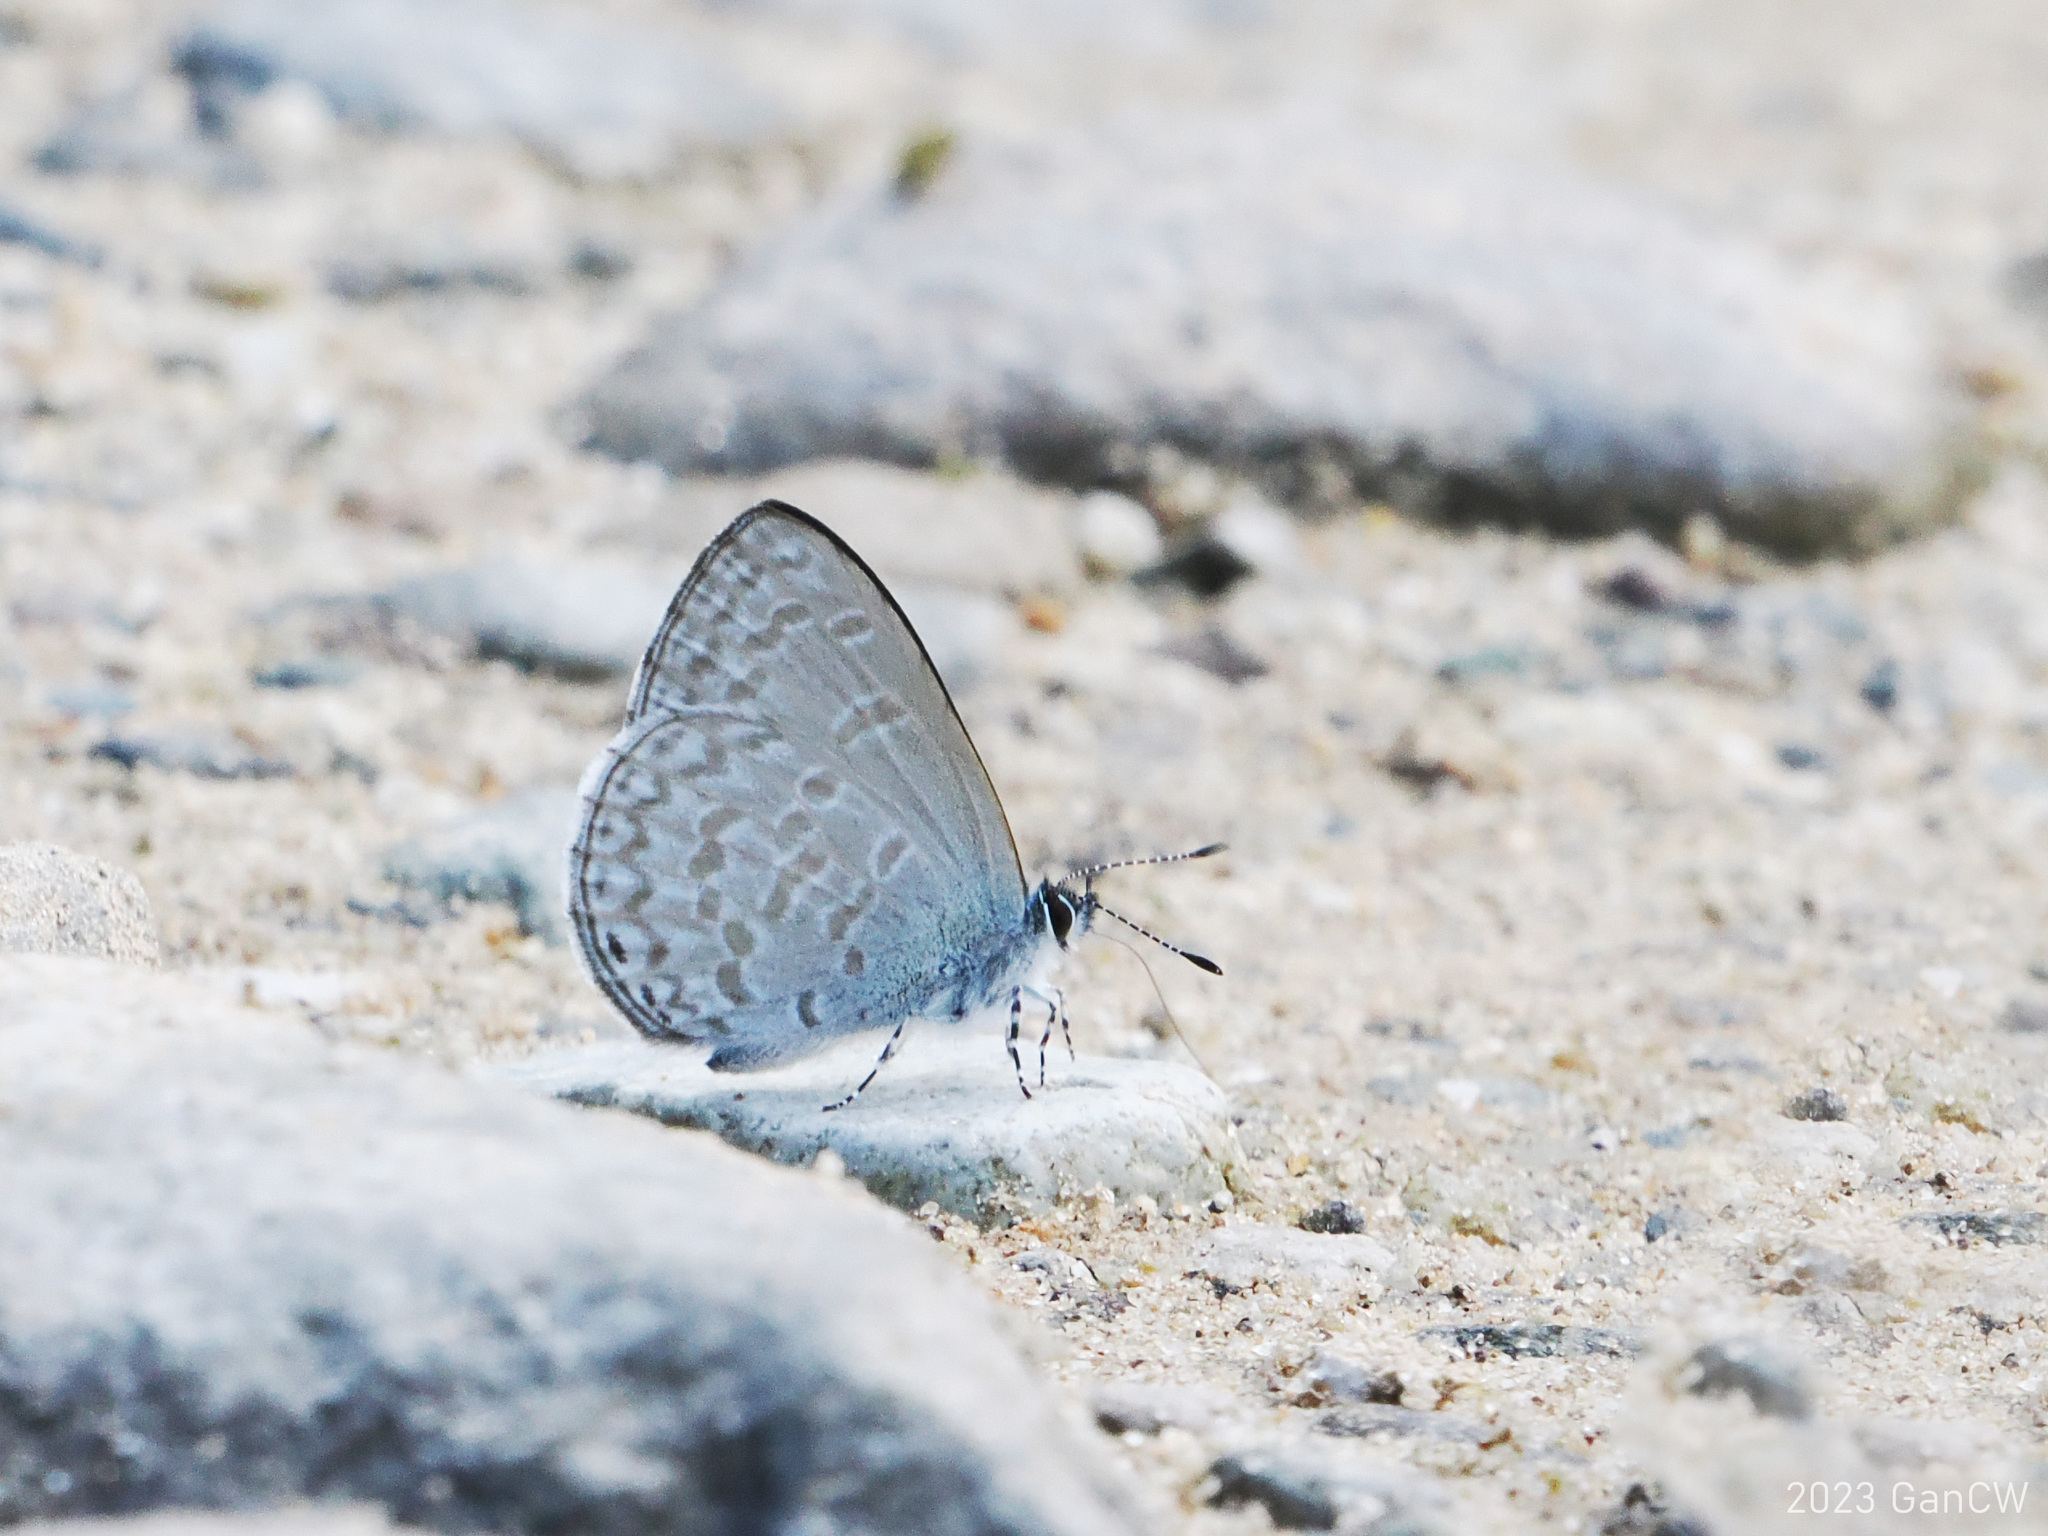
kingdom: Animalia
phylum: Arthropoda
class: Insecta
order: Lepidoptera
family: Lycaenidae
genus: Monodontides
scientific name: Monodontides
